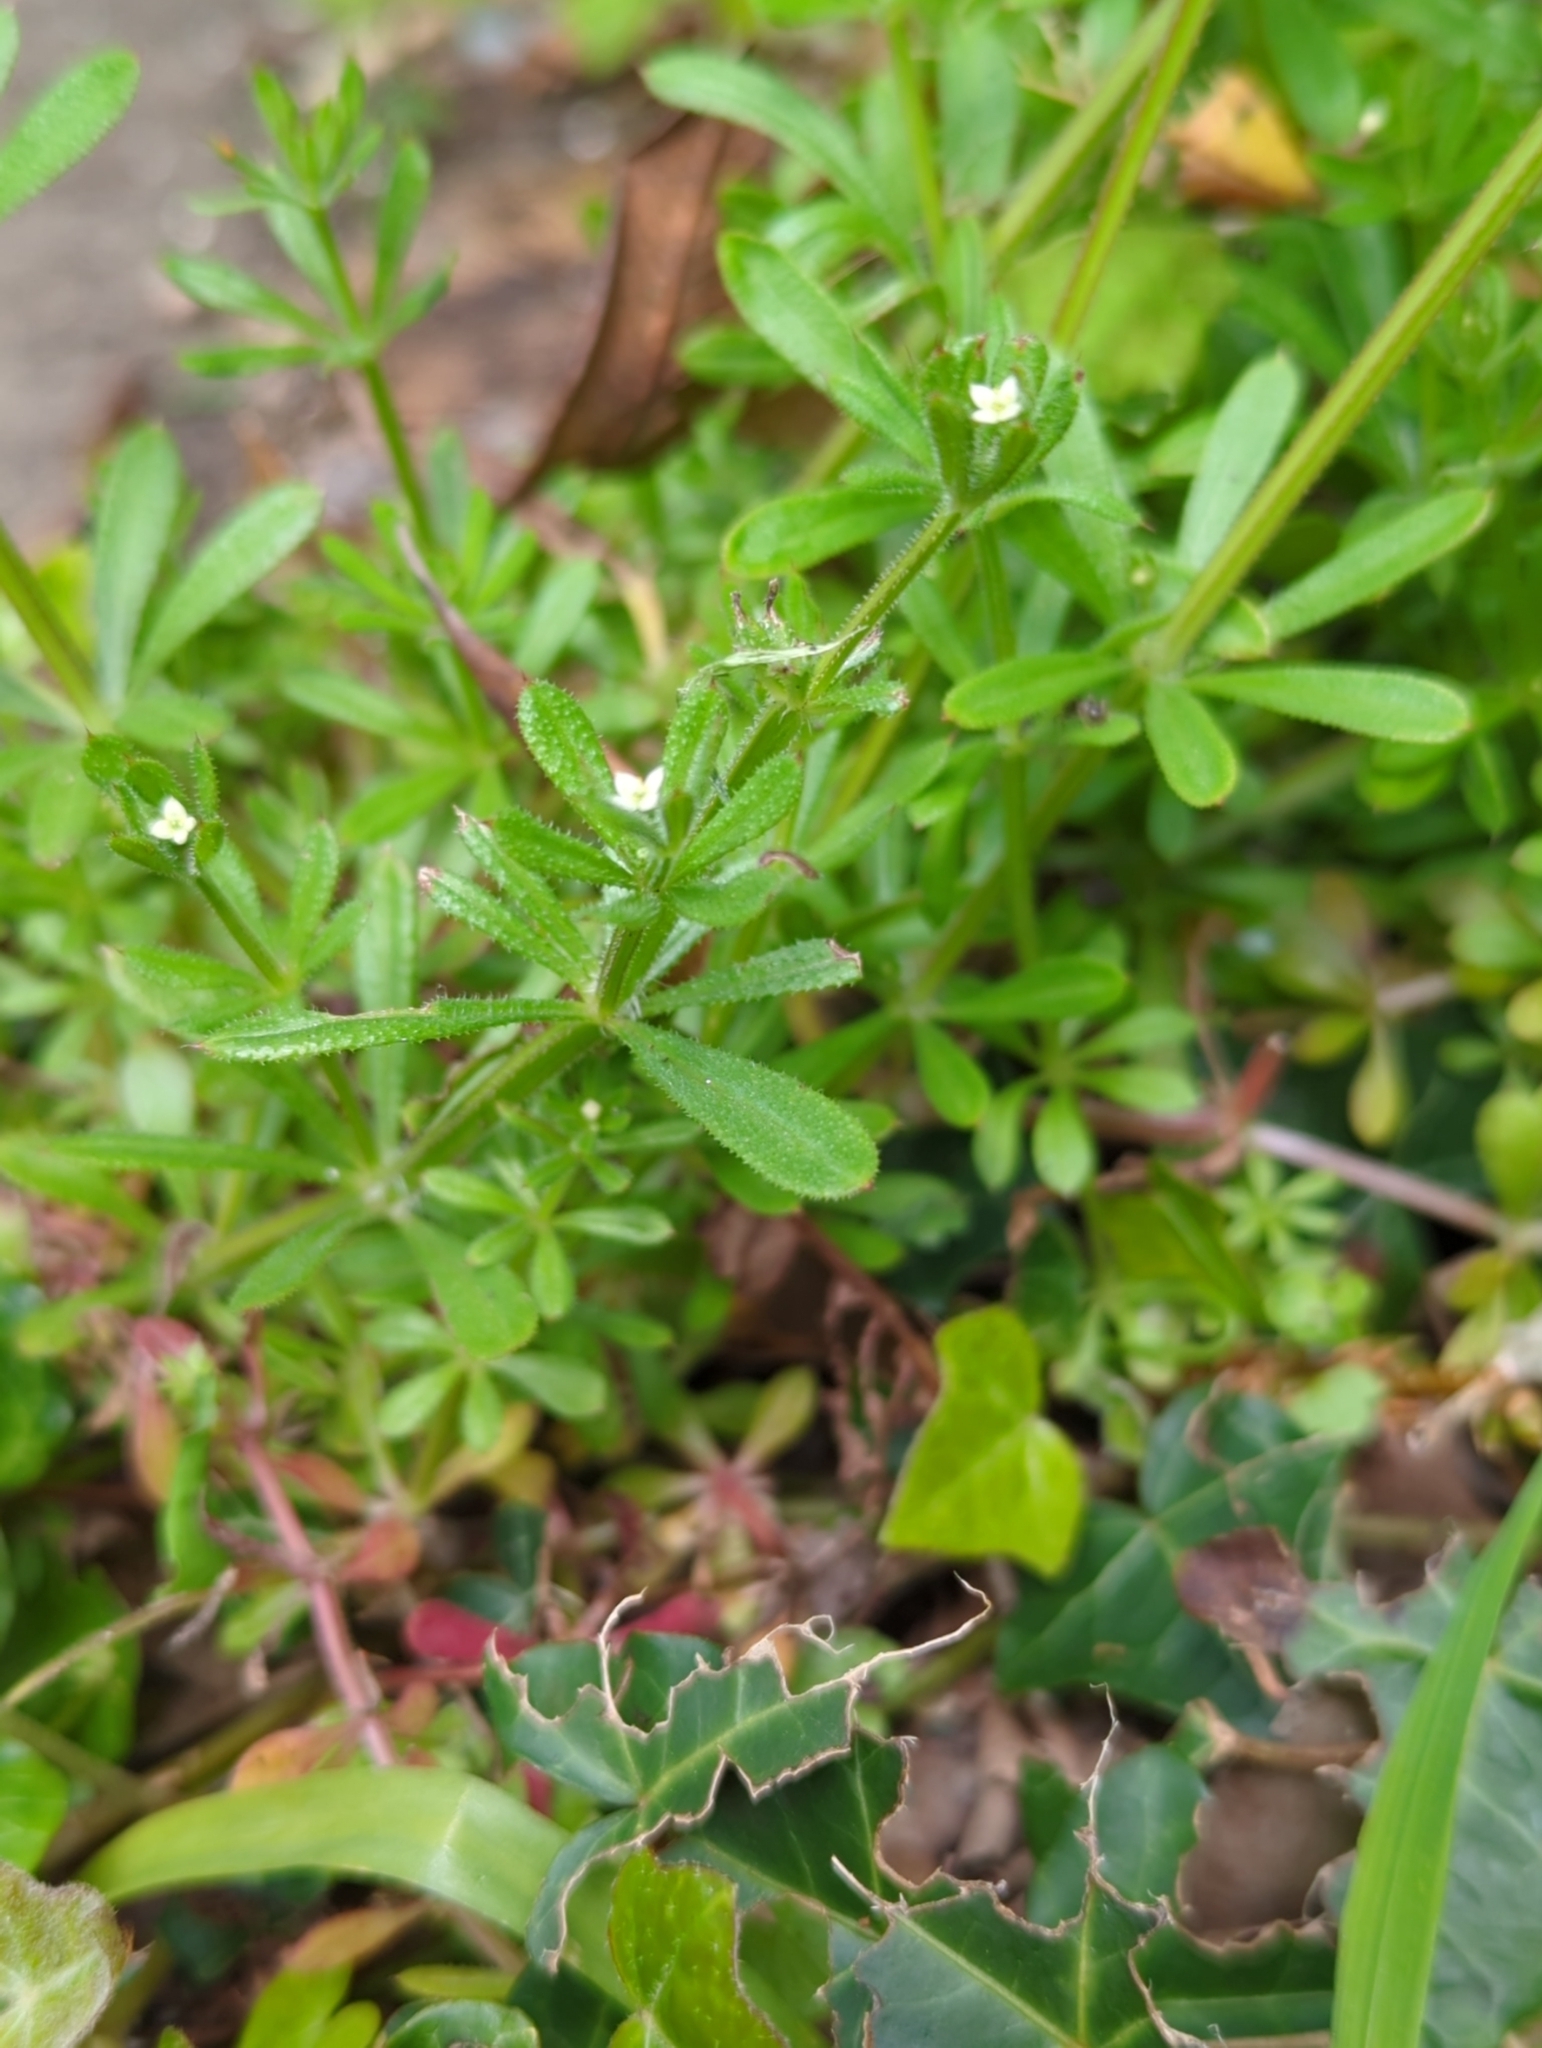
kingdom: Plantae
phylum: Tracheophyta
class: Magnoliopsida
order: Gentianales
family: Rubiaceae
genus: Galium
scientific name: Galium aparine
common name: Cleavers
